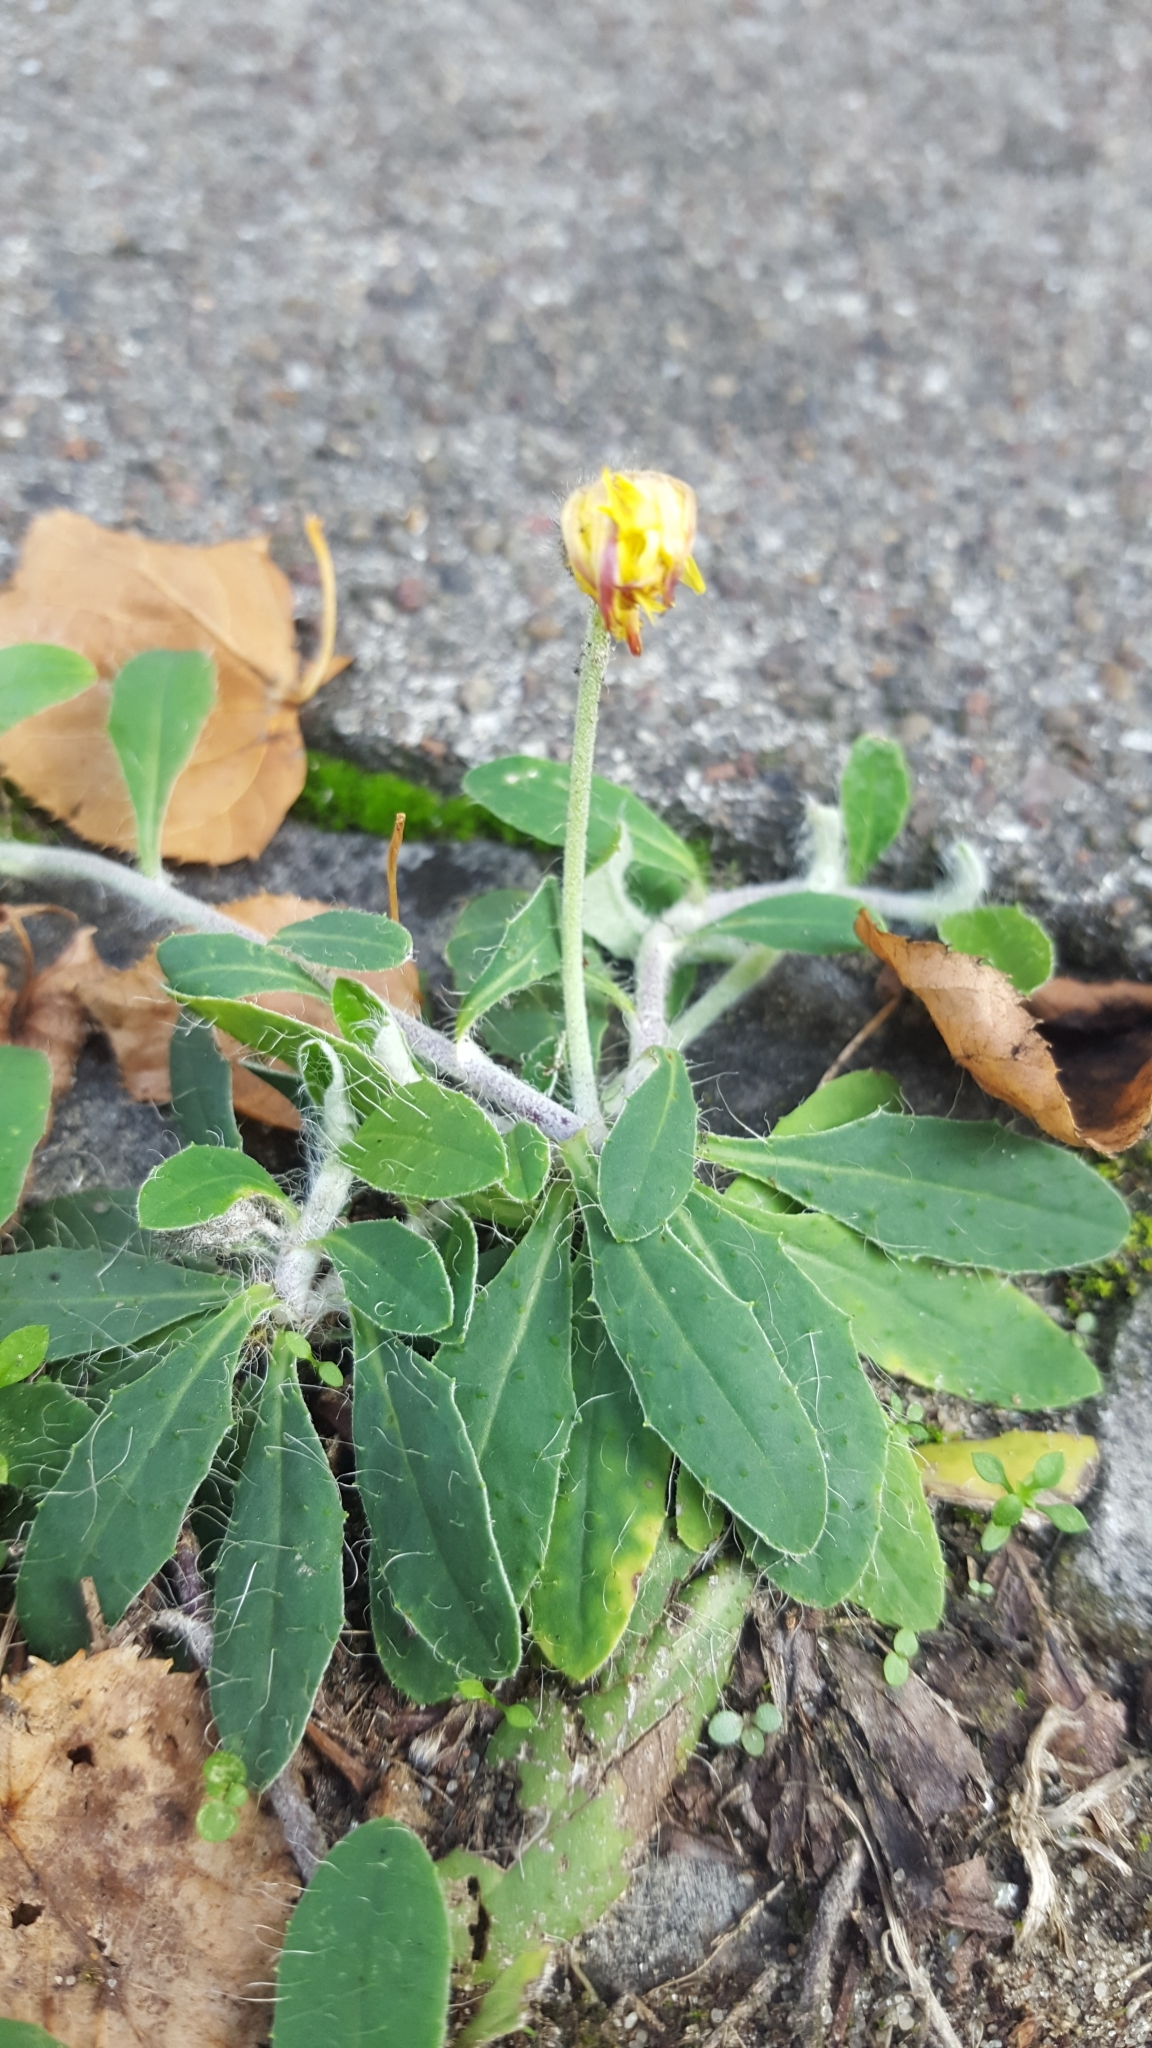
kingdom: Plantae
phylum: Tracheophyta
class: Magnoliopsida
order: Asterales
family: Asteraceae
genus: Pilosella
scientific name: Pilosella officinarum
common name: Mouse-ear hawkweed
